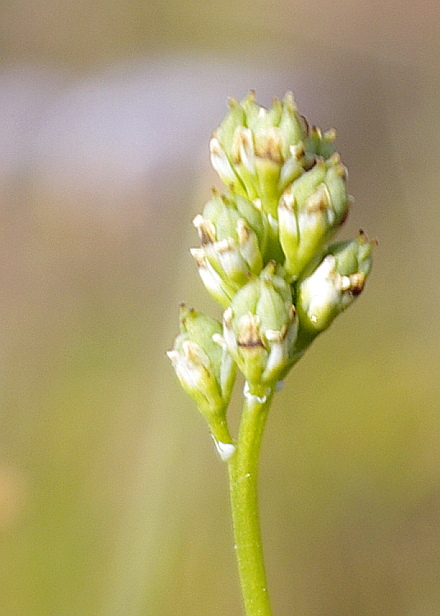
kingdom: Plantae
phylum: Tracheophyta
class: Liliopsida
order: Alismatales
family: Tofieldiaceae
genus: Tofieldia
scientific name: Tofieldia pusilla
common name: Scottish false asphodel
